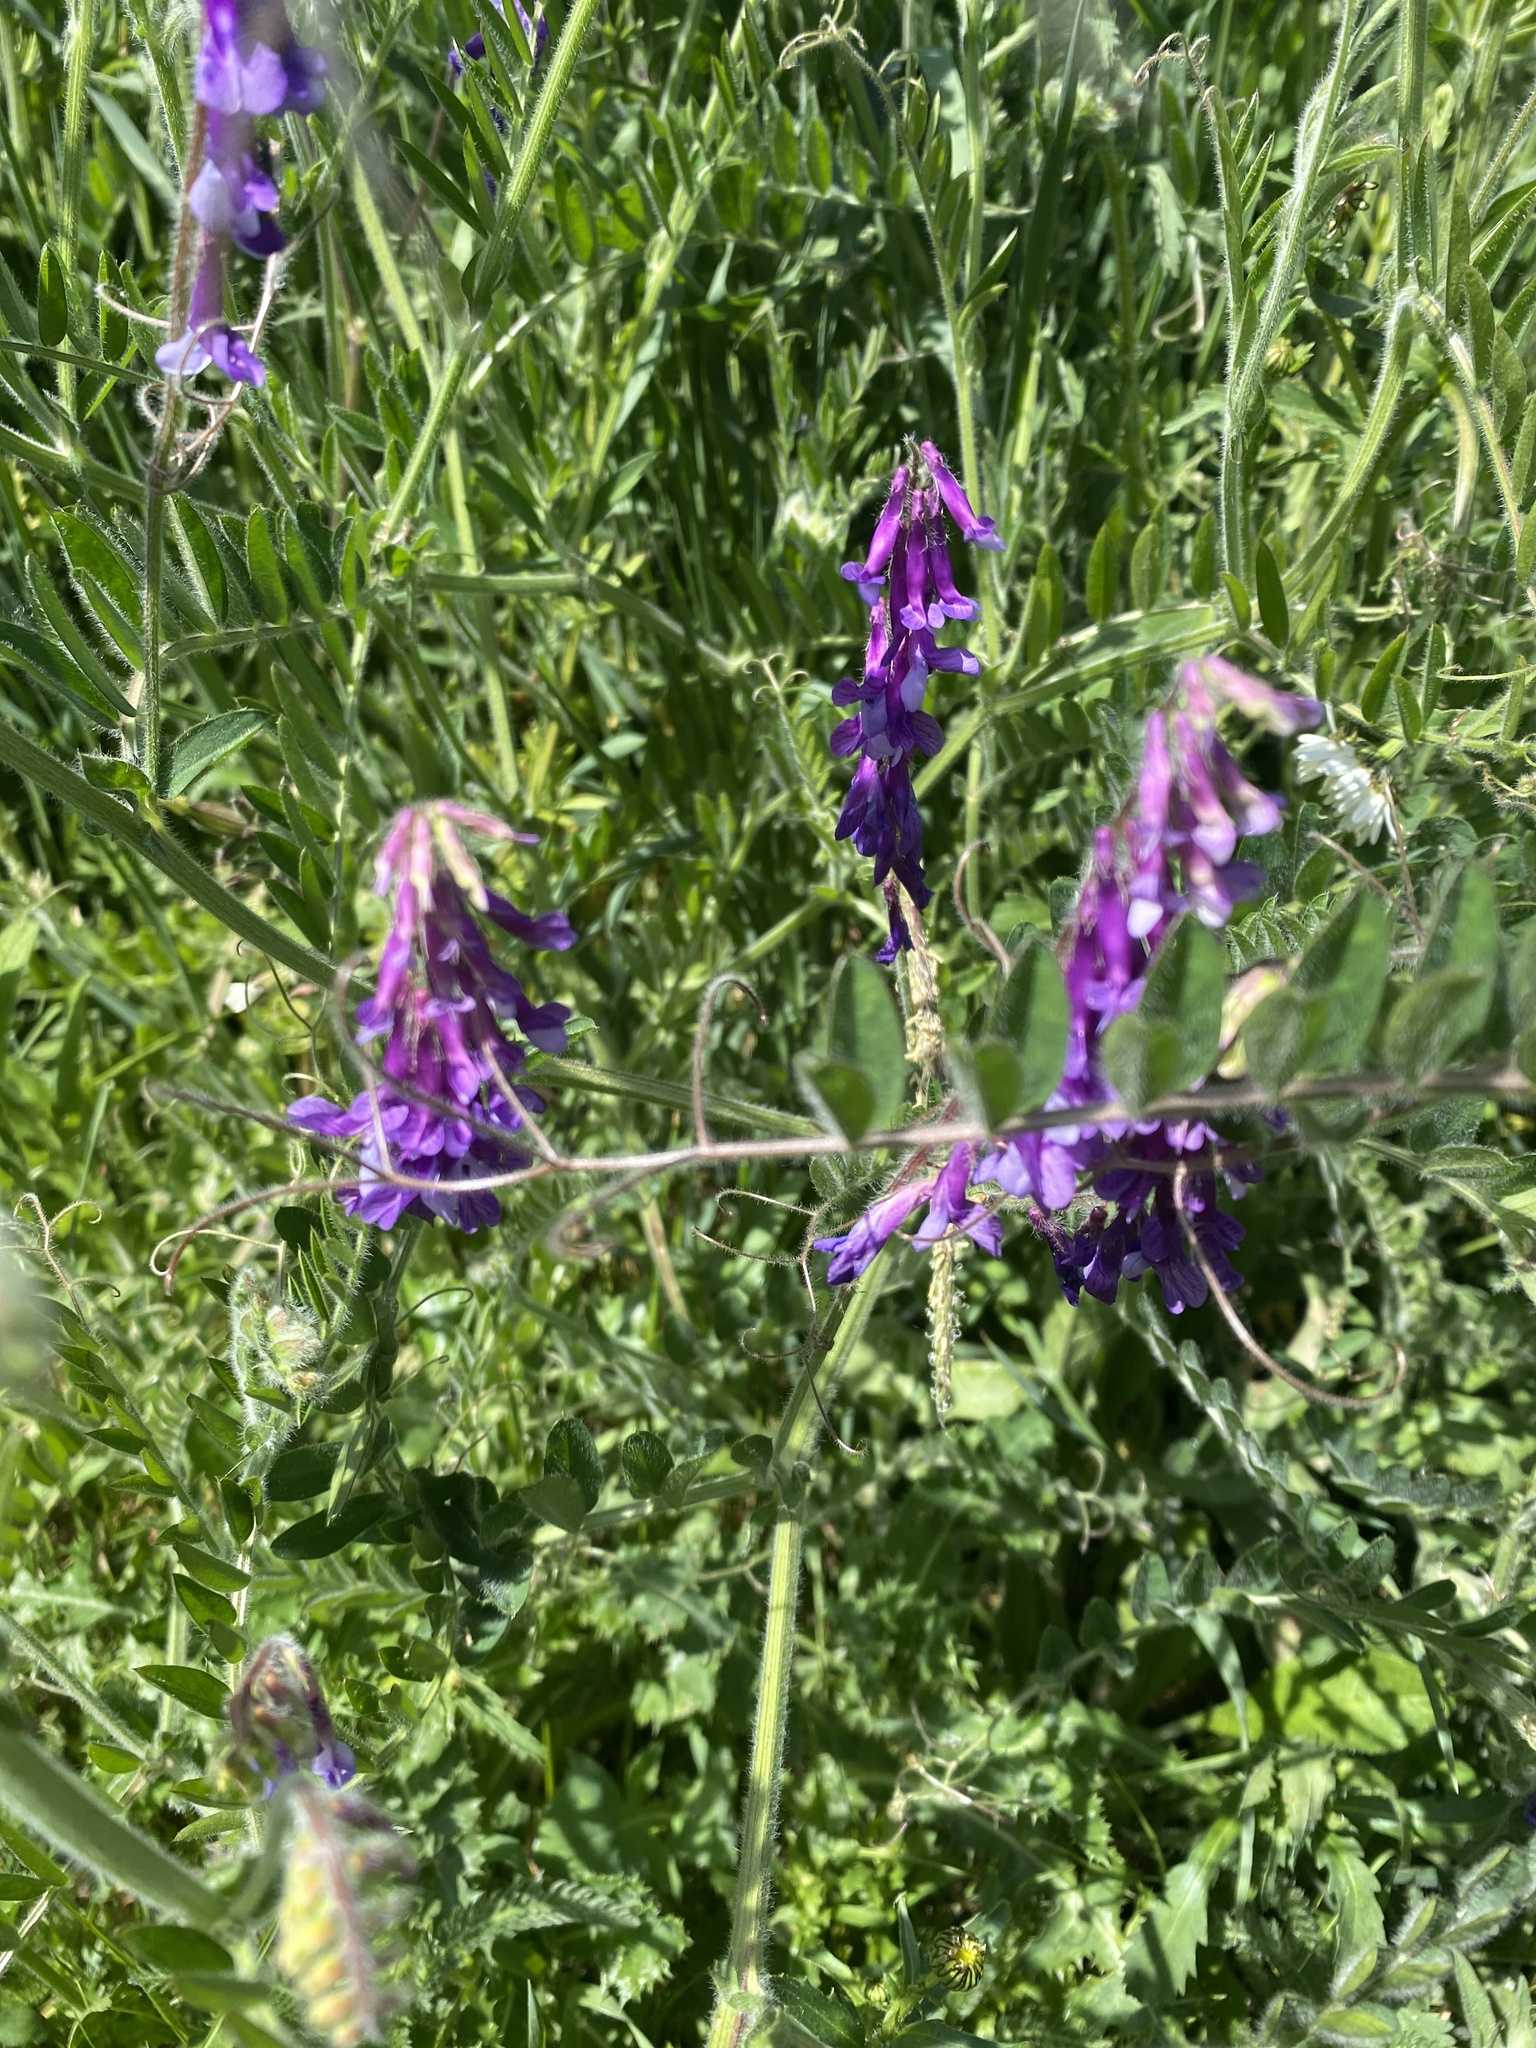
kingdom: Plantae
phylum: Tracheophyta
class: Magnoliopsida
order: Fabales
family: Fabaceae
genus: Vicia
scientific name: Vicia villosa
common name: Fodder vetch
